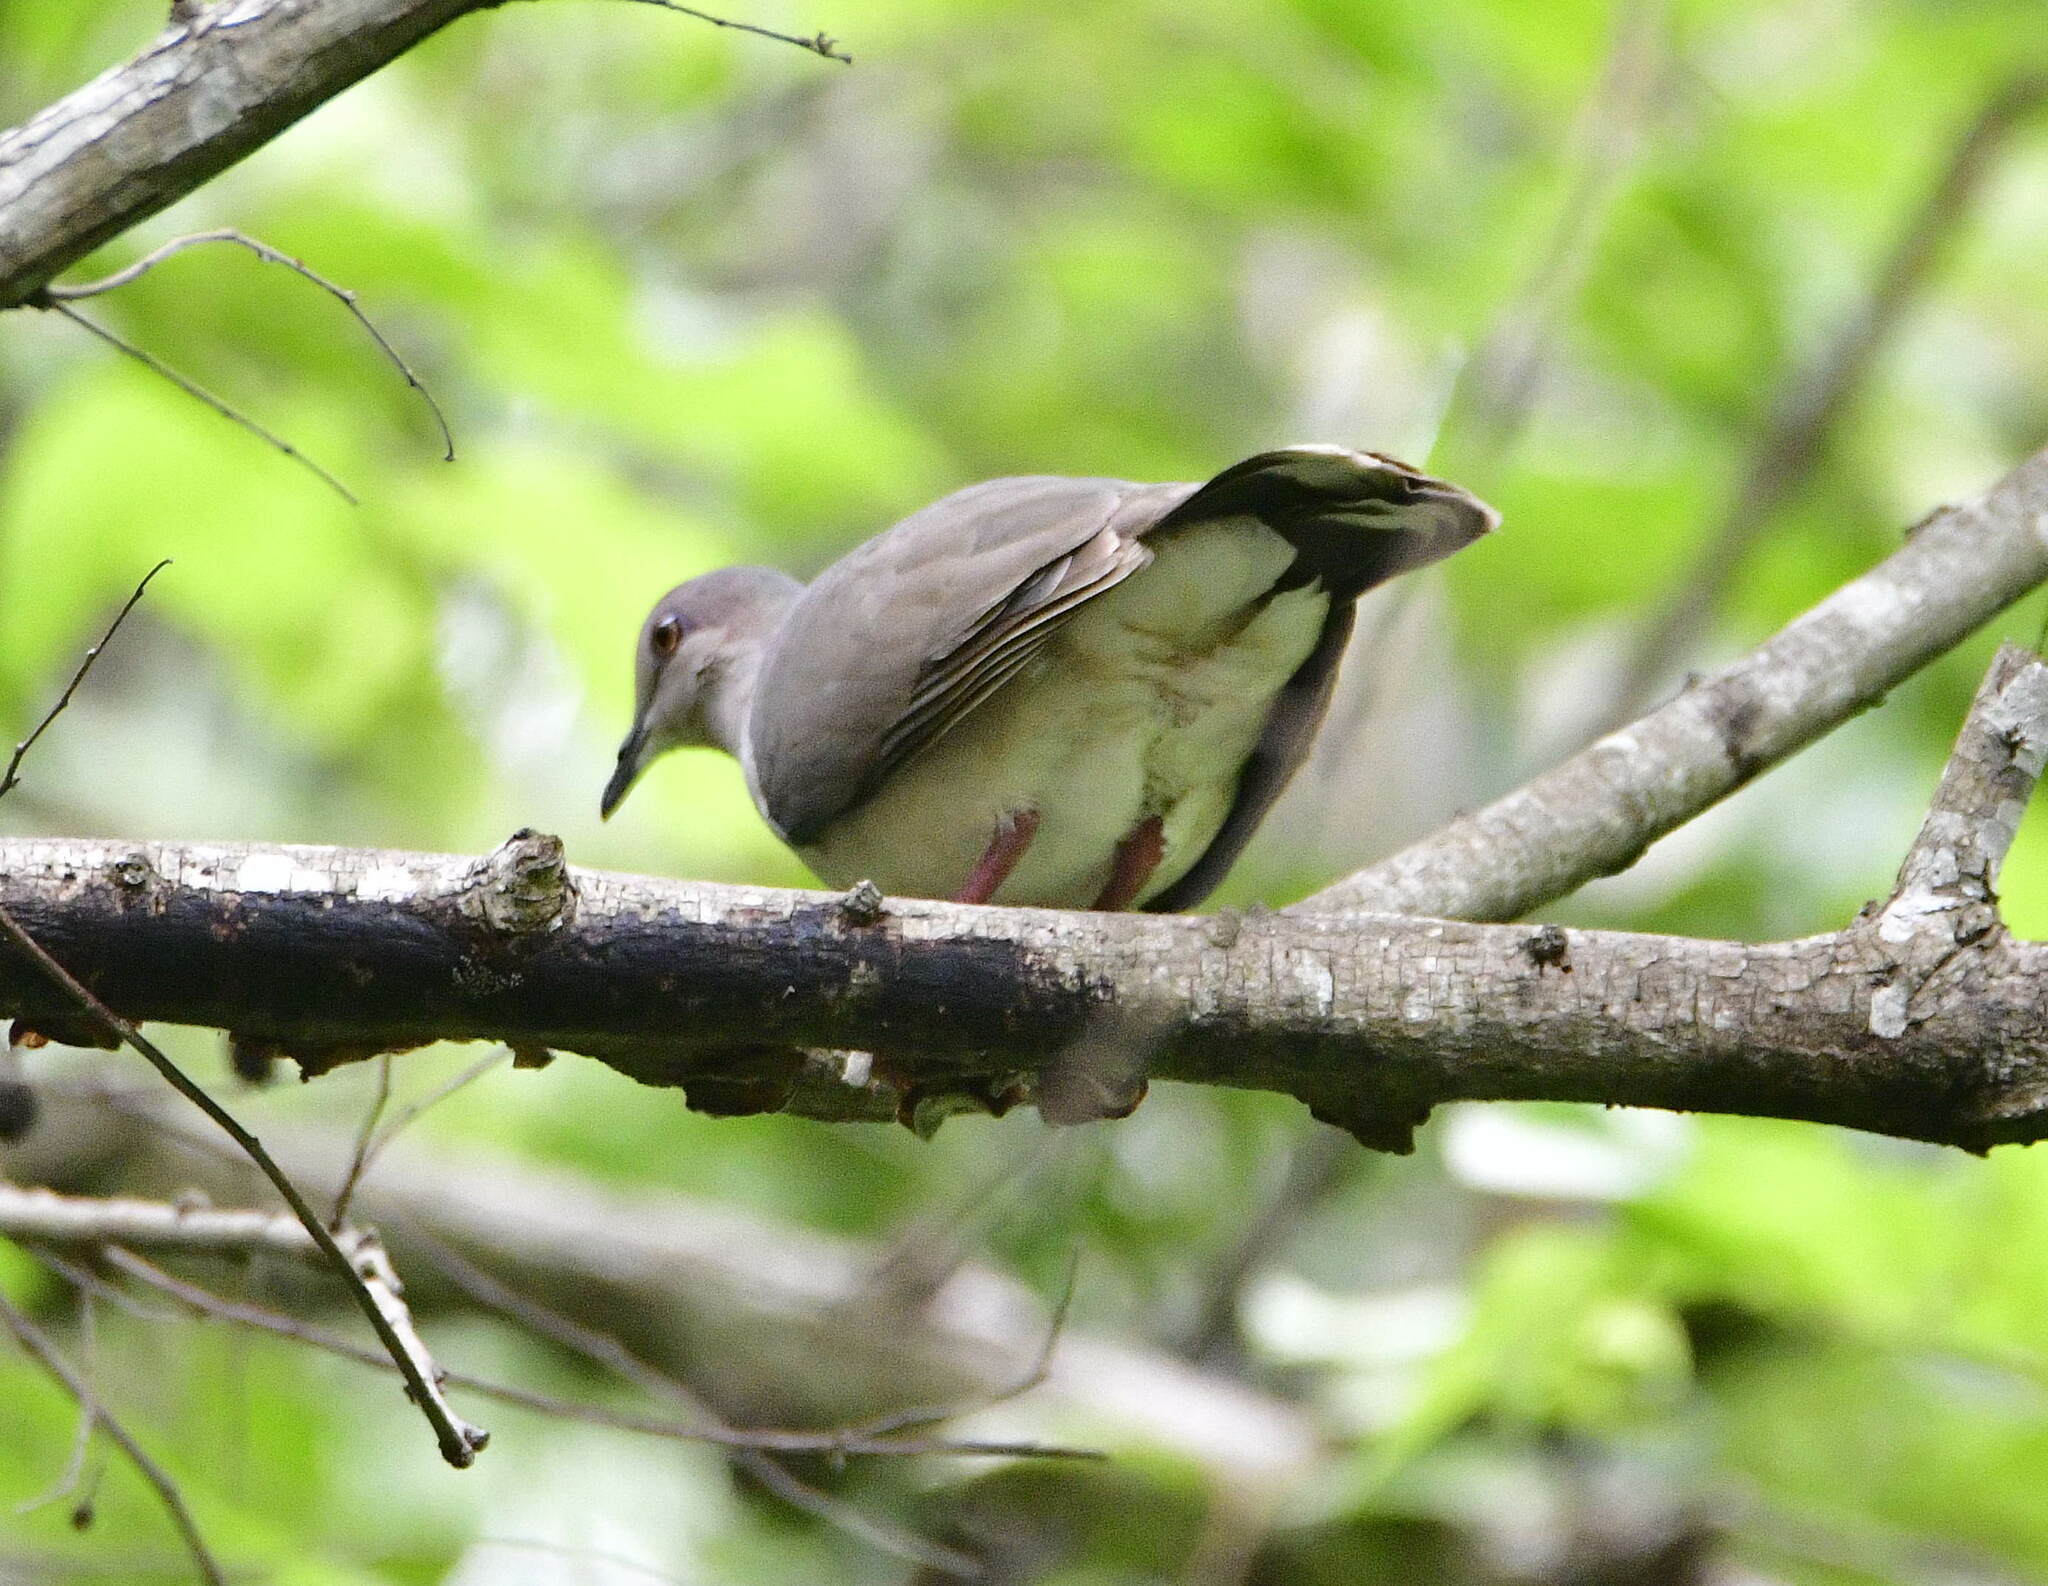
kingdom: Animalia
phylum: Chordata
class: Aves
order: Columbiformes
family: Columbidae
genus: Leptotila
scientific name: Leptotila verreauxi
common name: White-tipped dove
